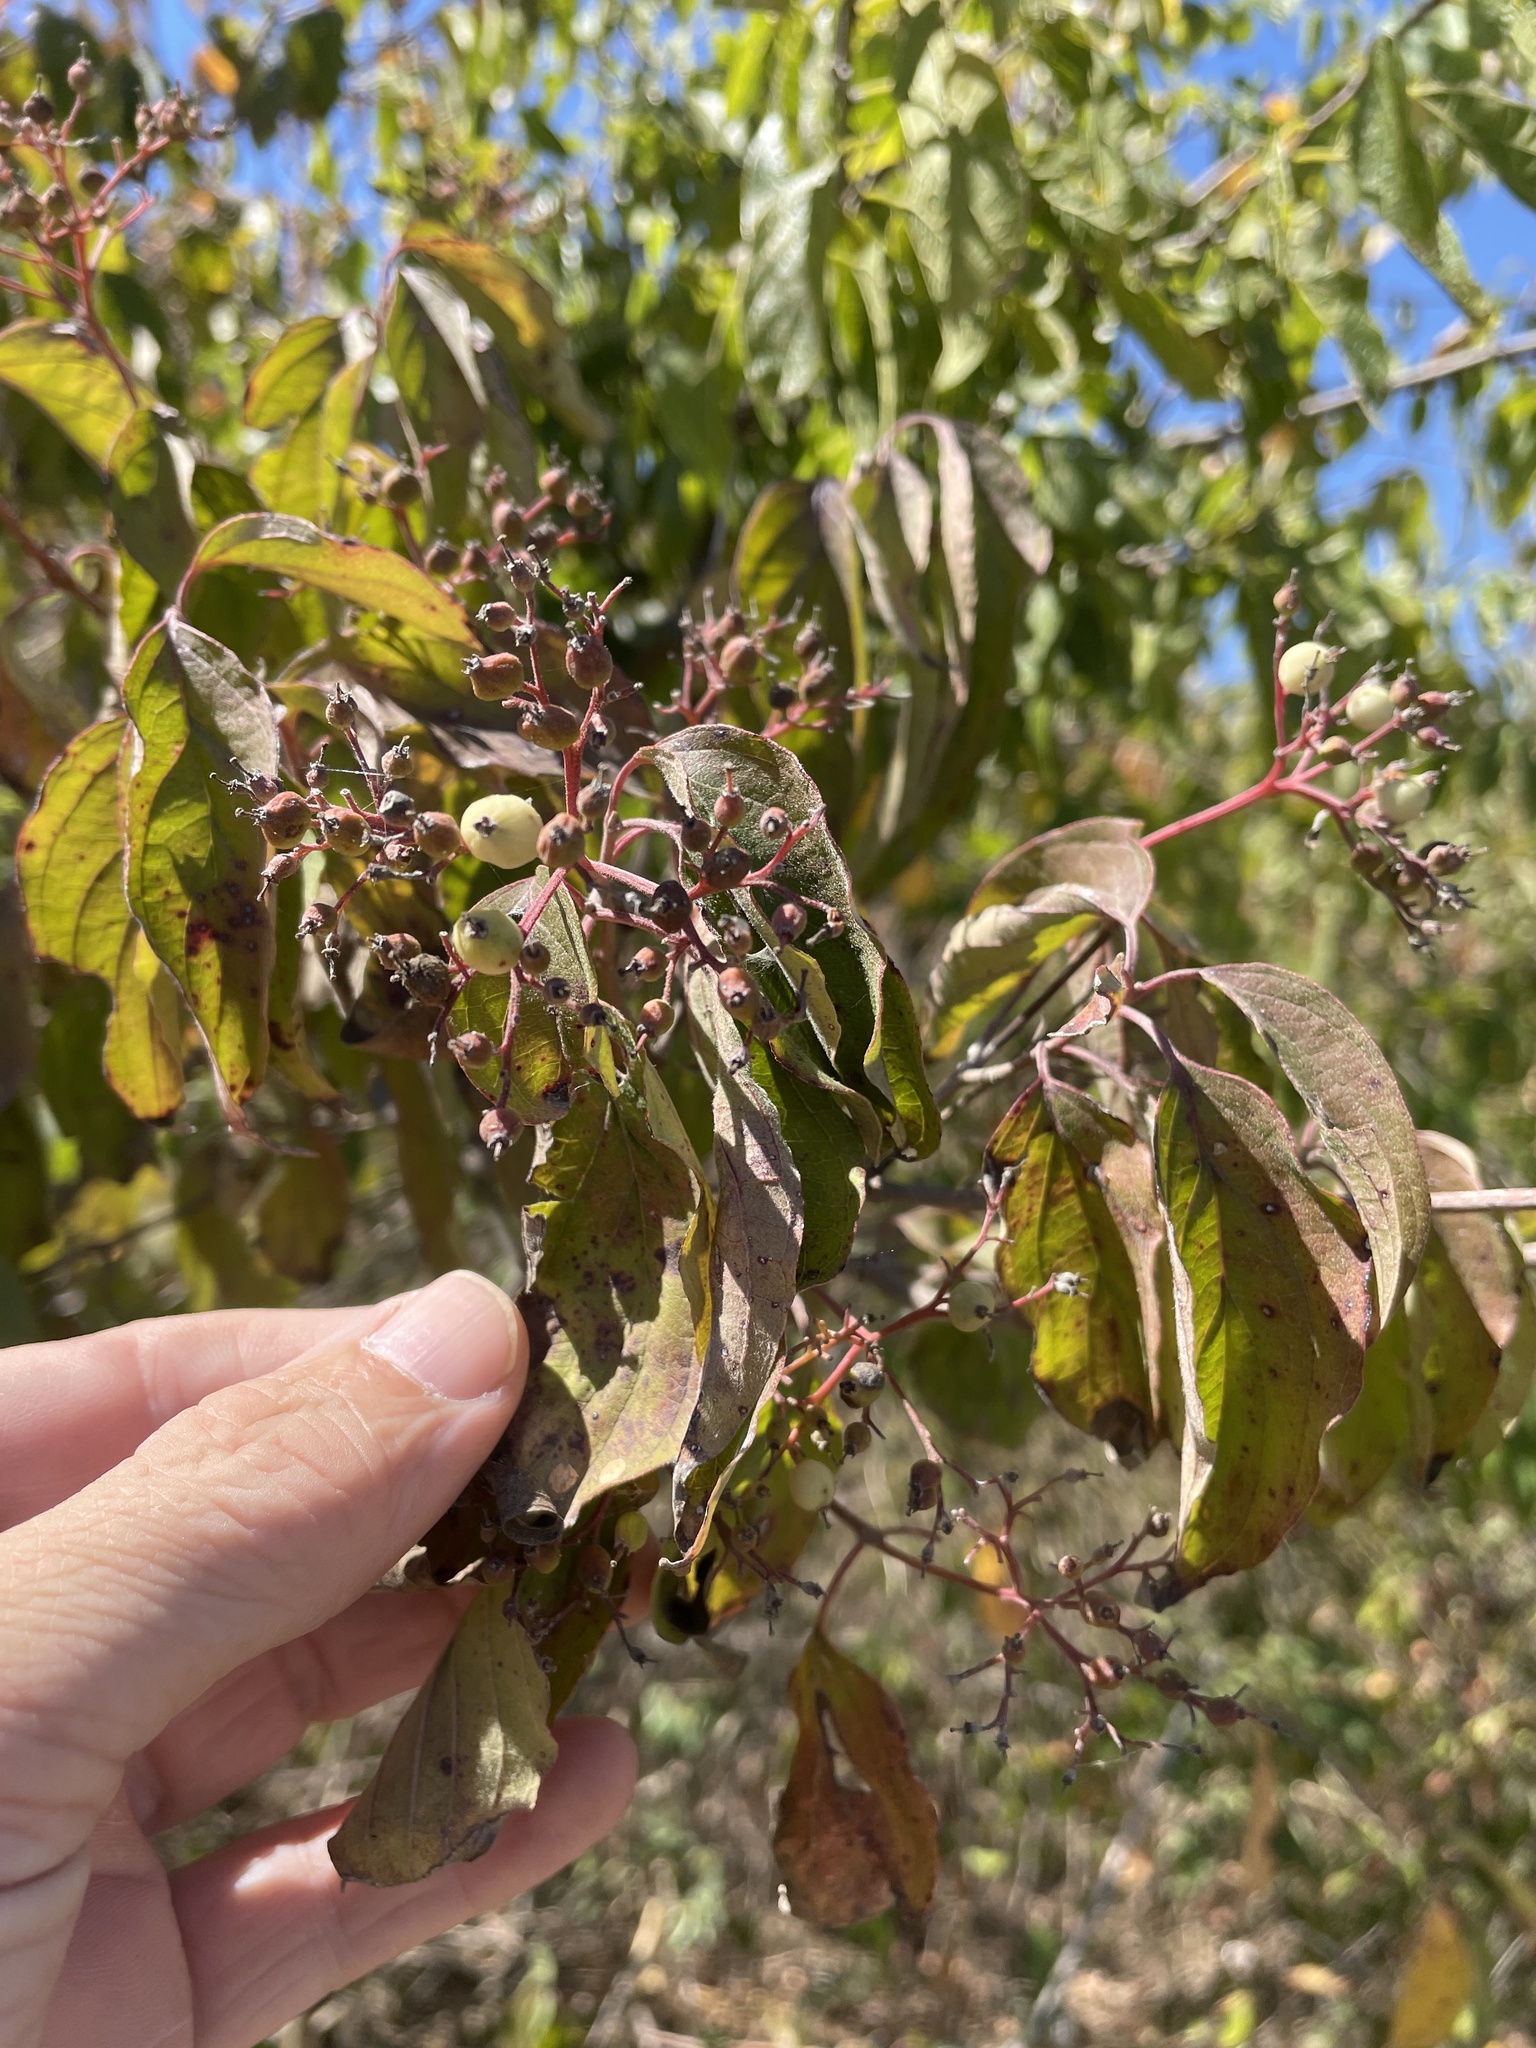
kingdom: Plantae
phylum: Tracheophyta
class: Magnoliopsida
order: Cornales
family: Cornaceae
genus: Cornus
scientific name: Cornus drummondii
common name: Rough-leaf dogwood
